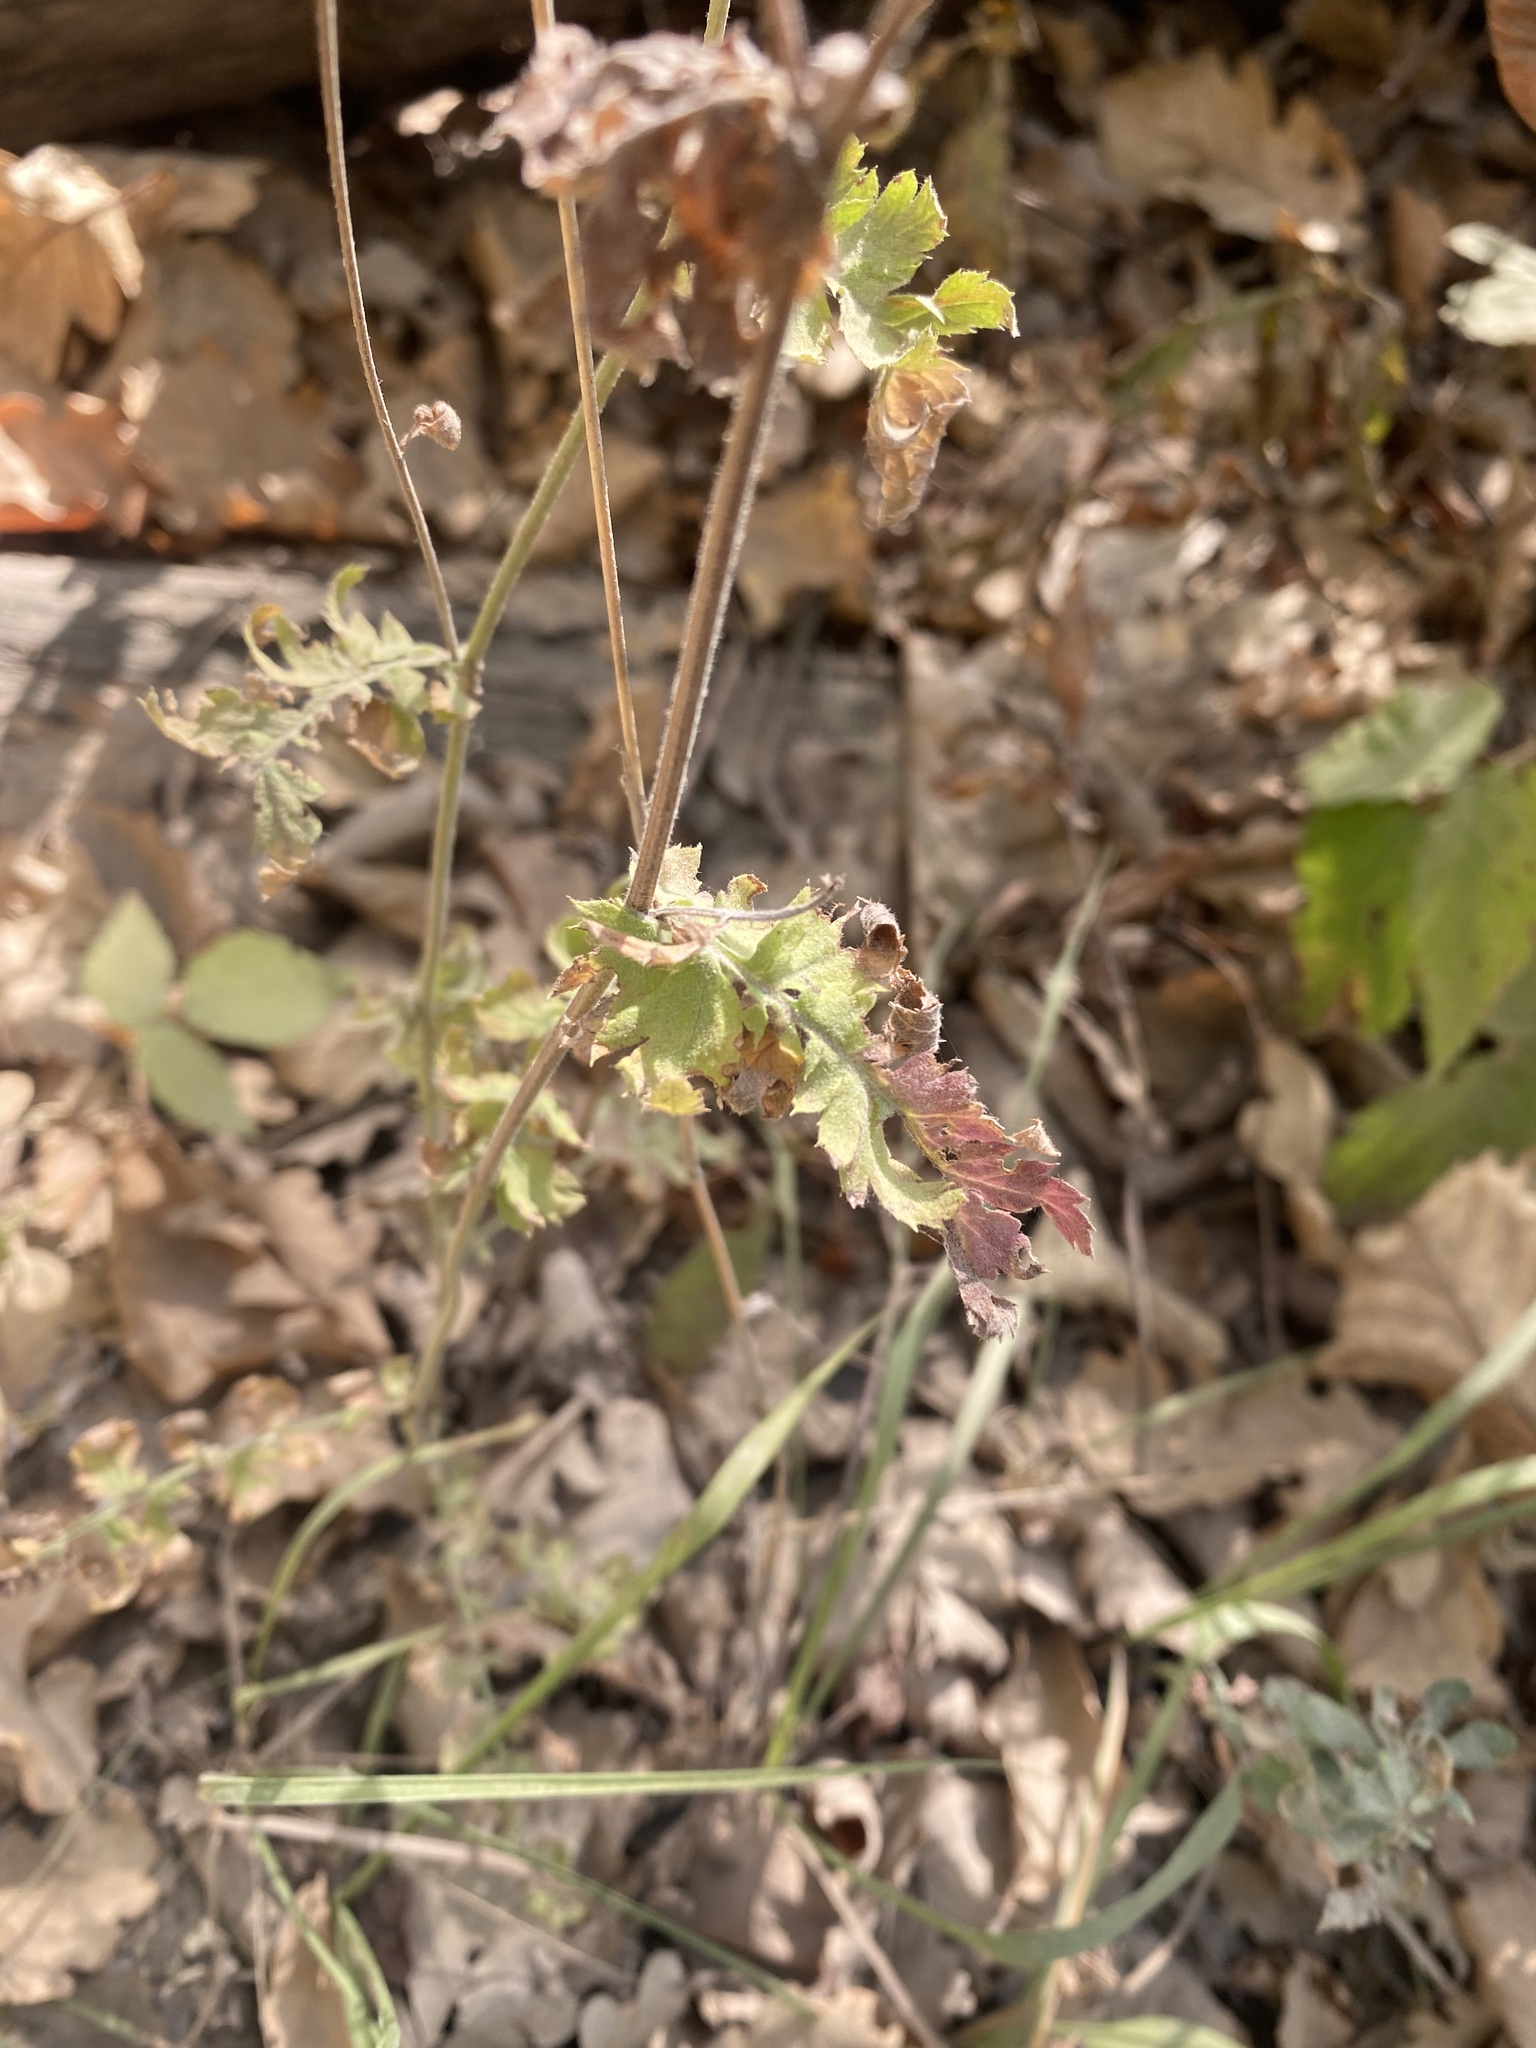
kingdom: Plantae
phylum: Tracheophyta
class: Magnoliopsida
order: Asterales
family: Asteraceae
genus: Tanacetum
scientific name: Tanacetum poteriifolium
